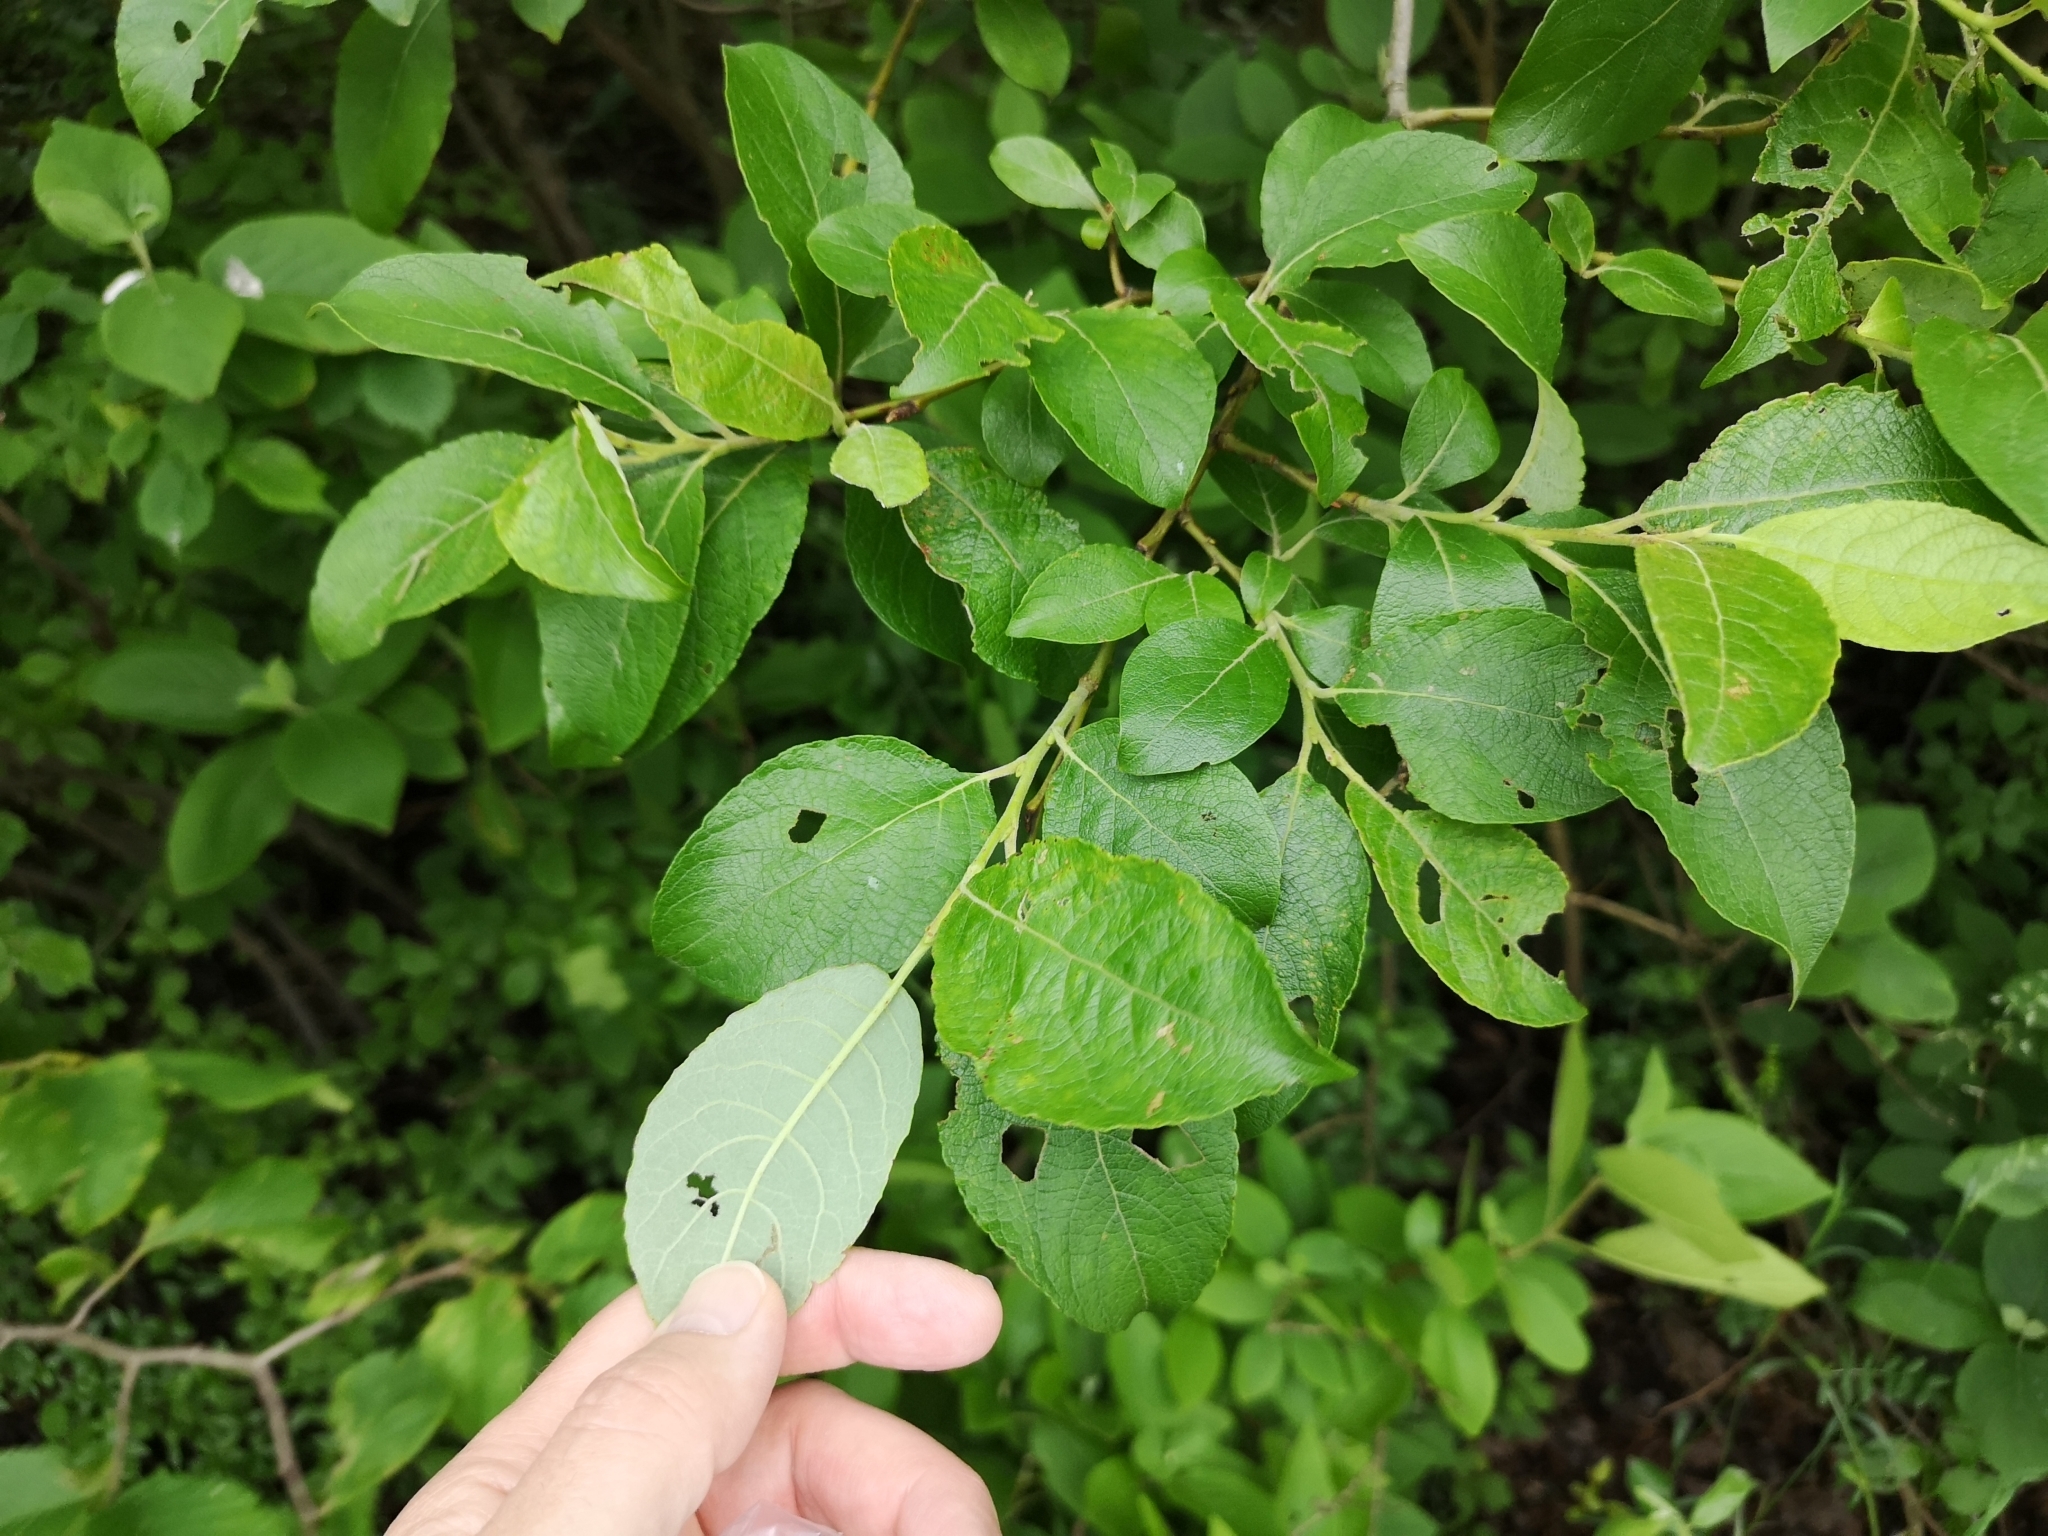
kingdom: Plantae
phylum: Tracheophyta
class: Magnoliopsida
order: Malpighiales
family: Salicaceae
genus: Salix
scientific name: Salix caprea
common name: Goat willow
